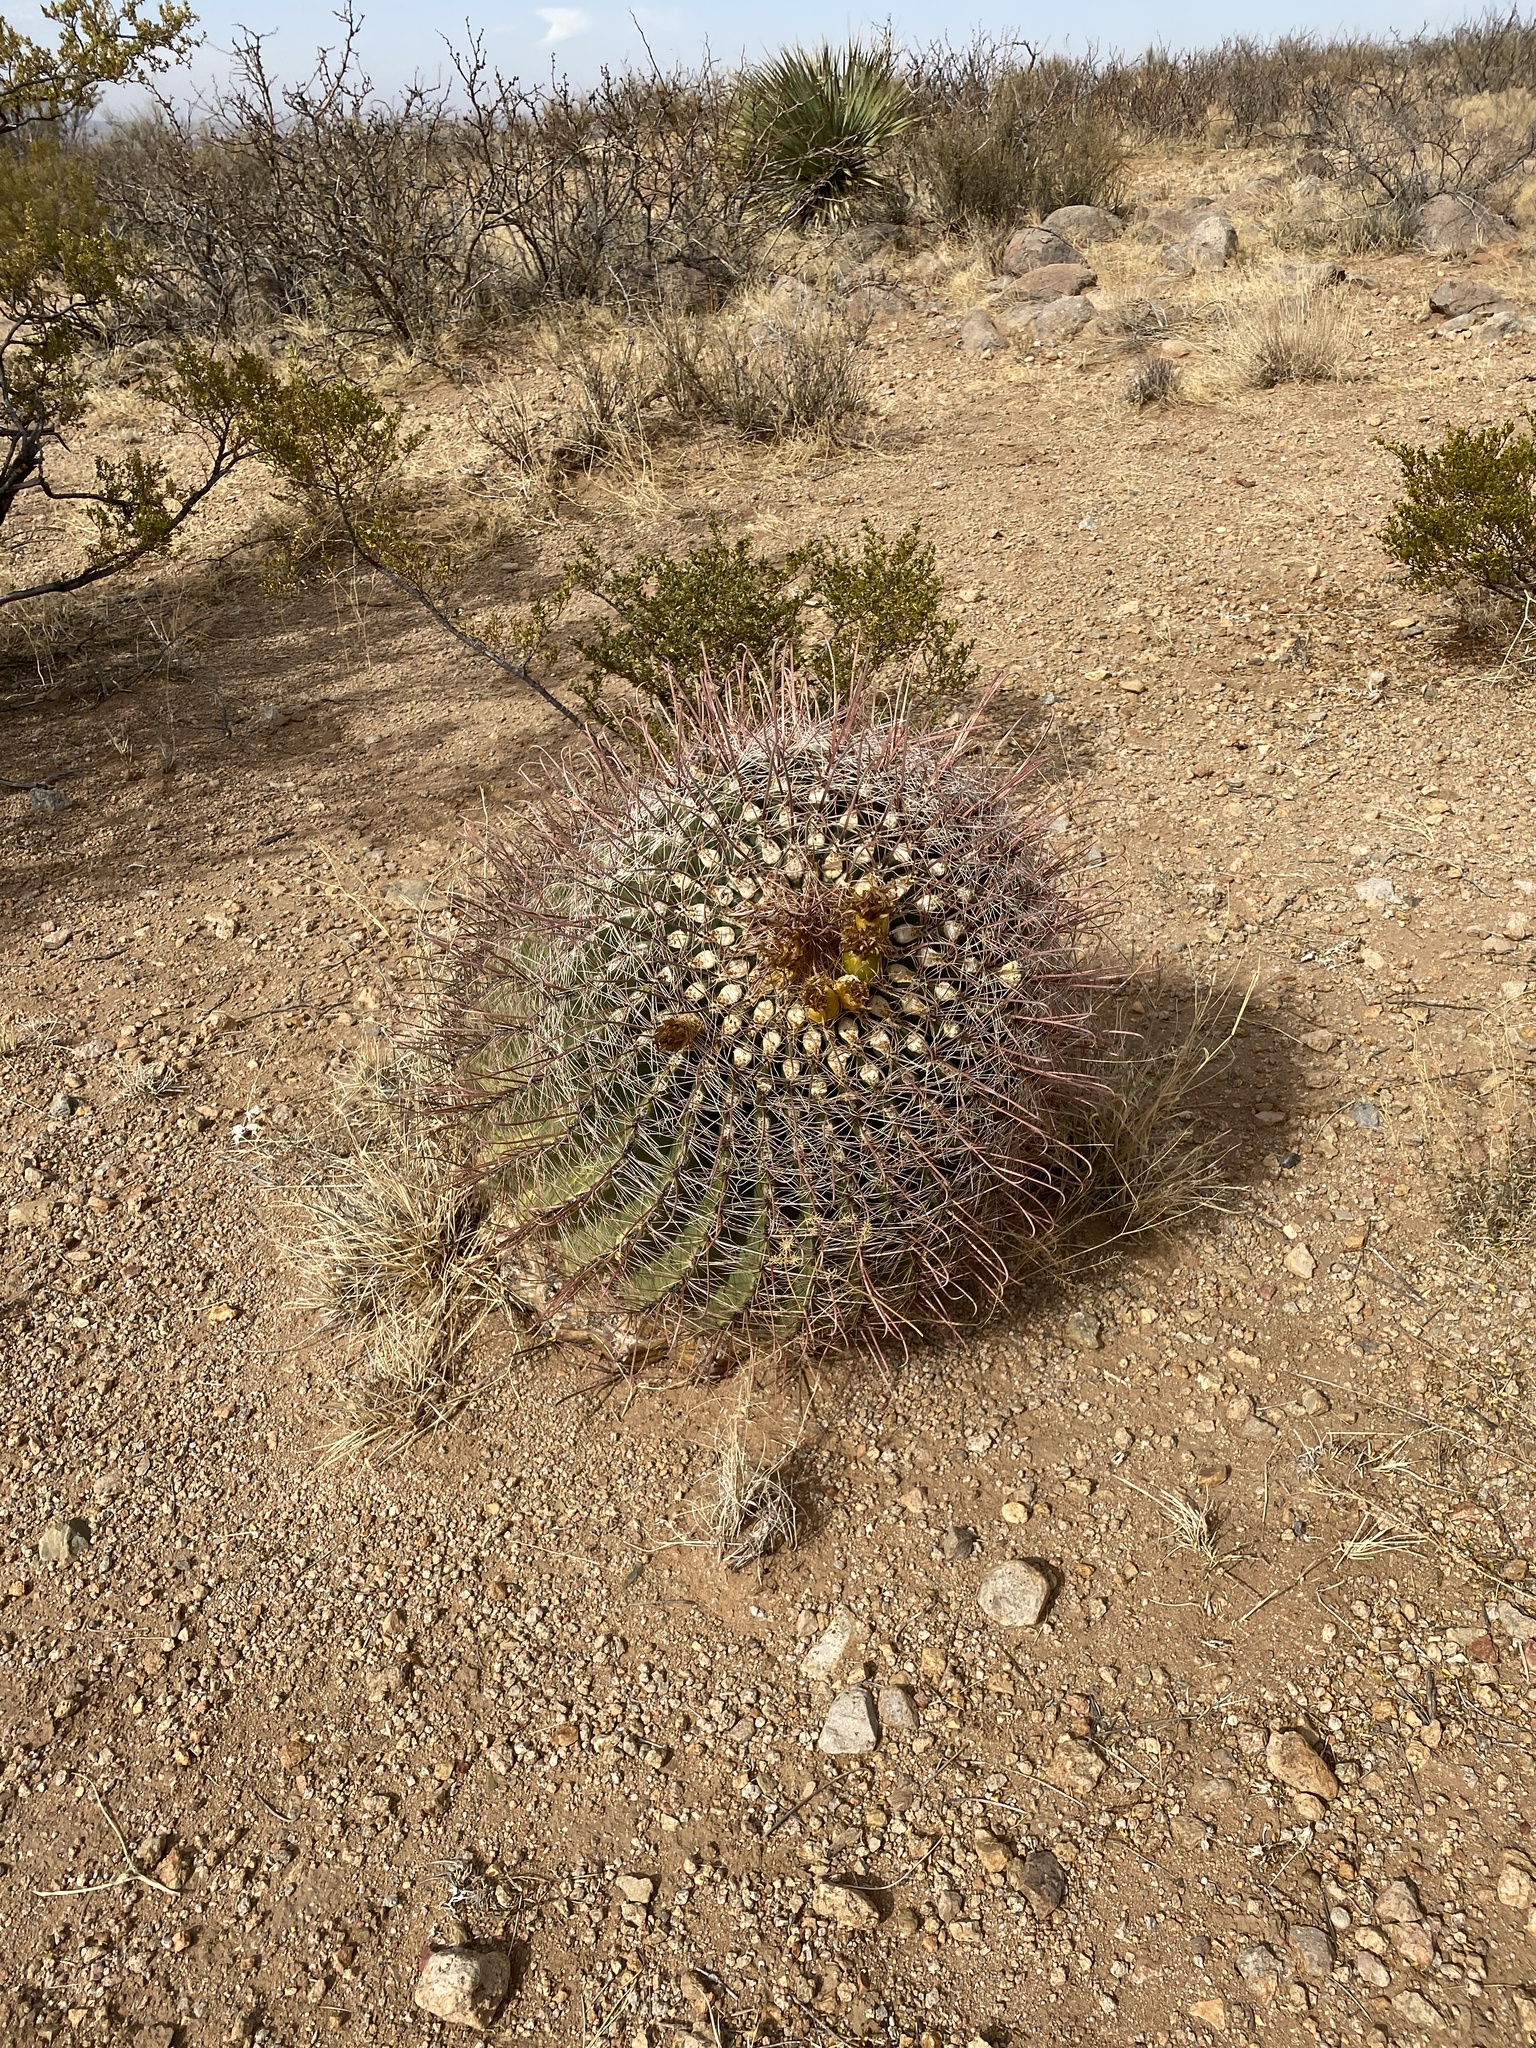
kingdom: Plantae
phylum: Tracheophyta
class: Magnoliopsida
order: Caryophyllales
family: Cactaceae
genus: Ferocactus
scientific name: Ferocactus wislizeni
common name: Candy barrel cactus
